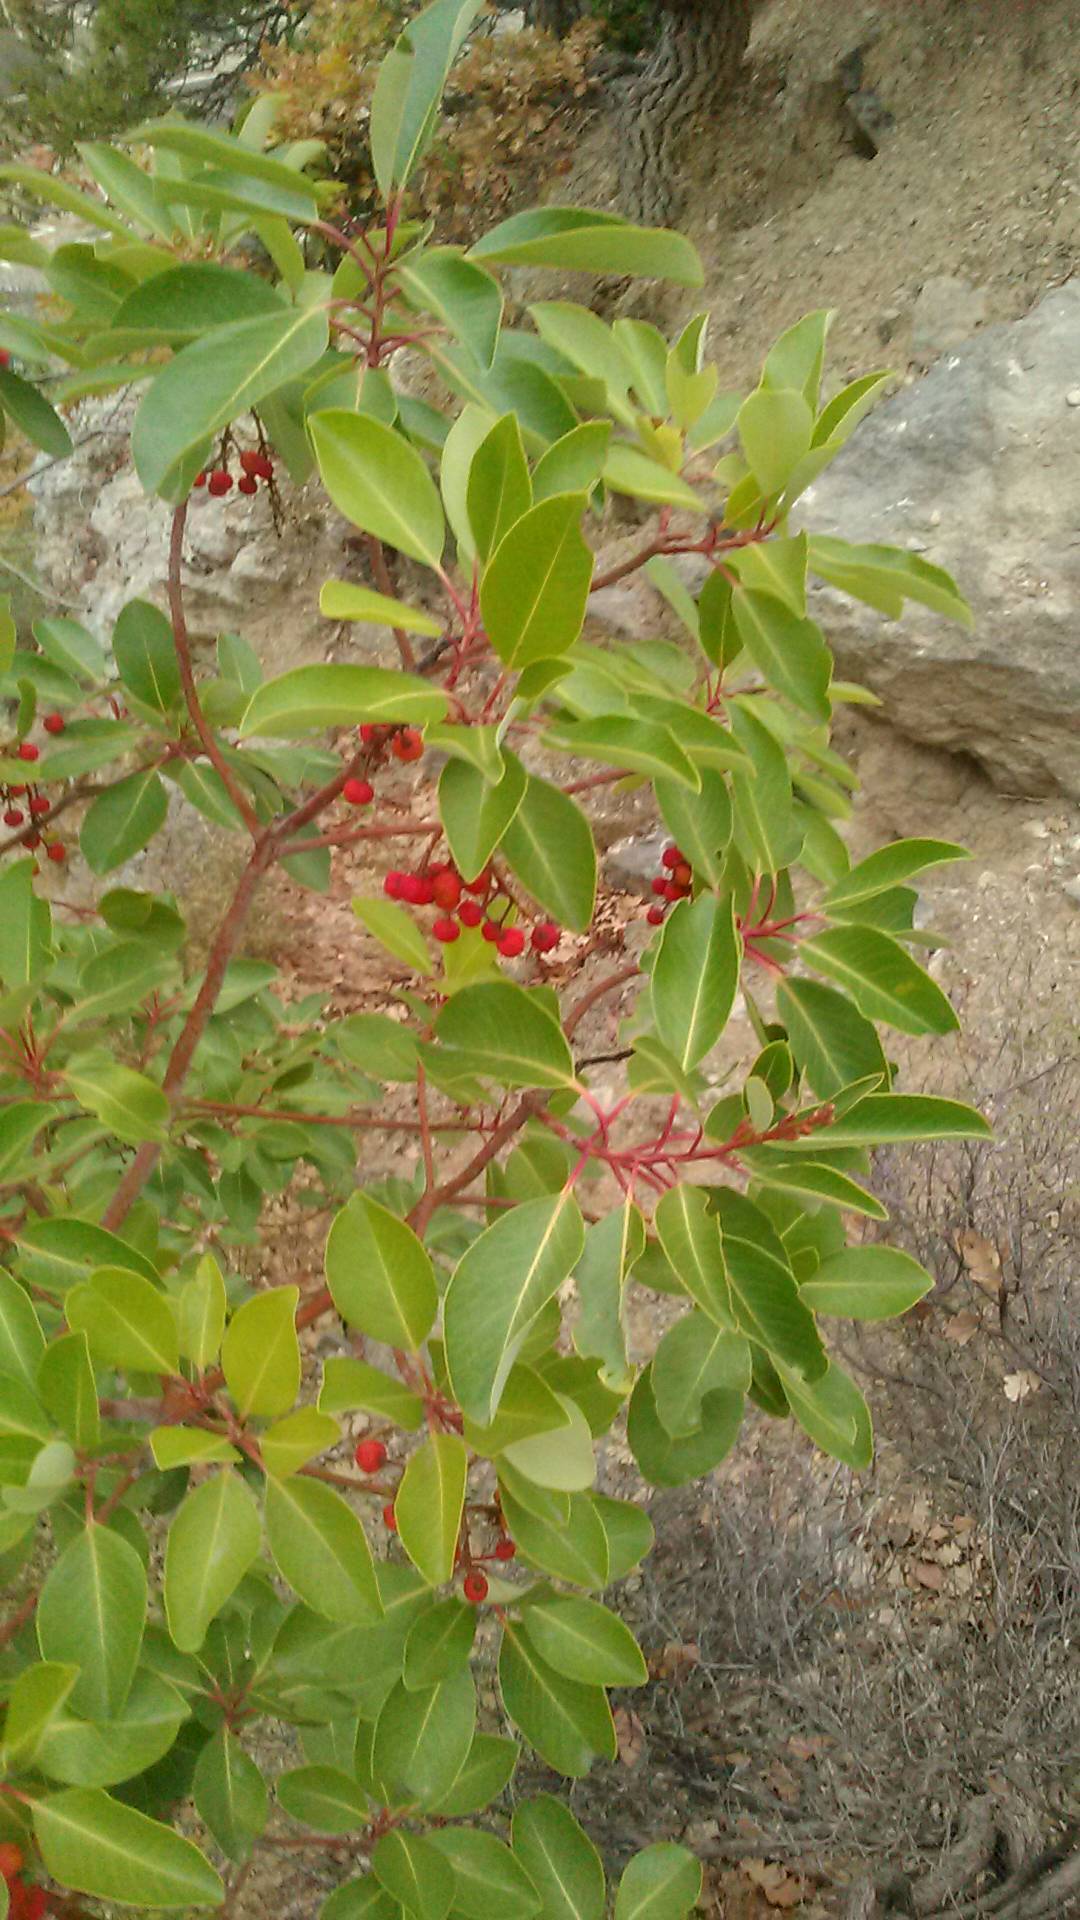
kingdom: Plantae
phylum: Tracheophyta
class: Magnoliopsida
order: Ericales
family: Ericaceae
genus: Arbutus
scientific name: Arbutus andrachne
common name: Greek strawberry tree
